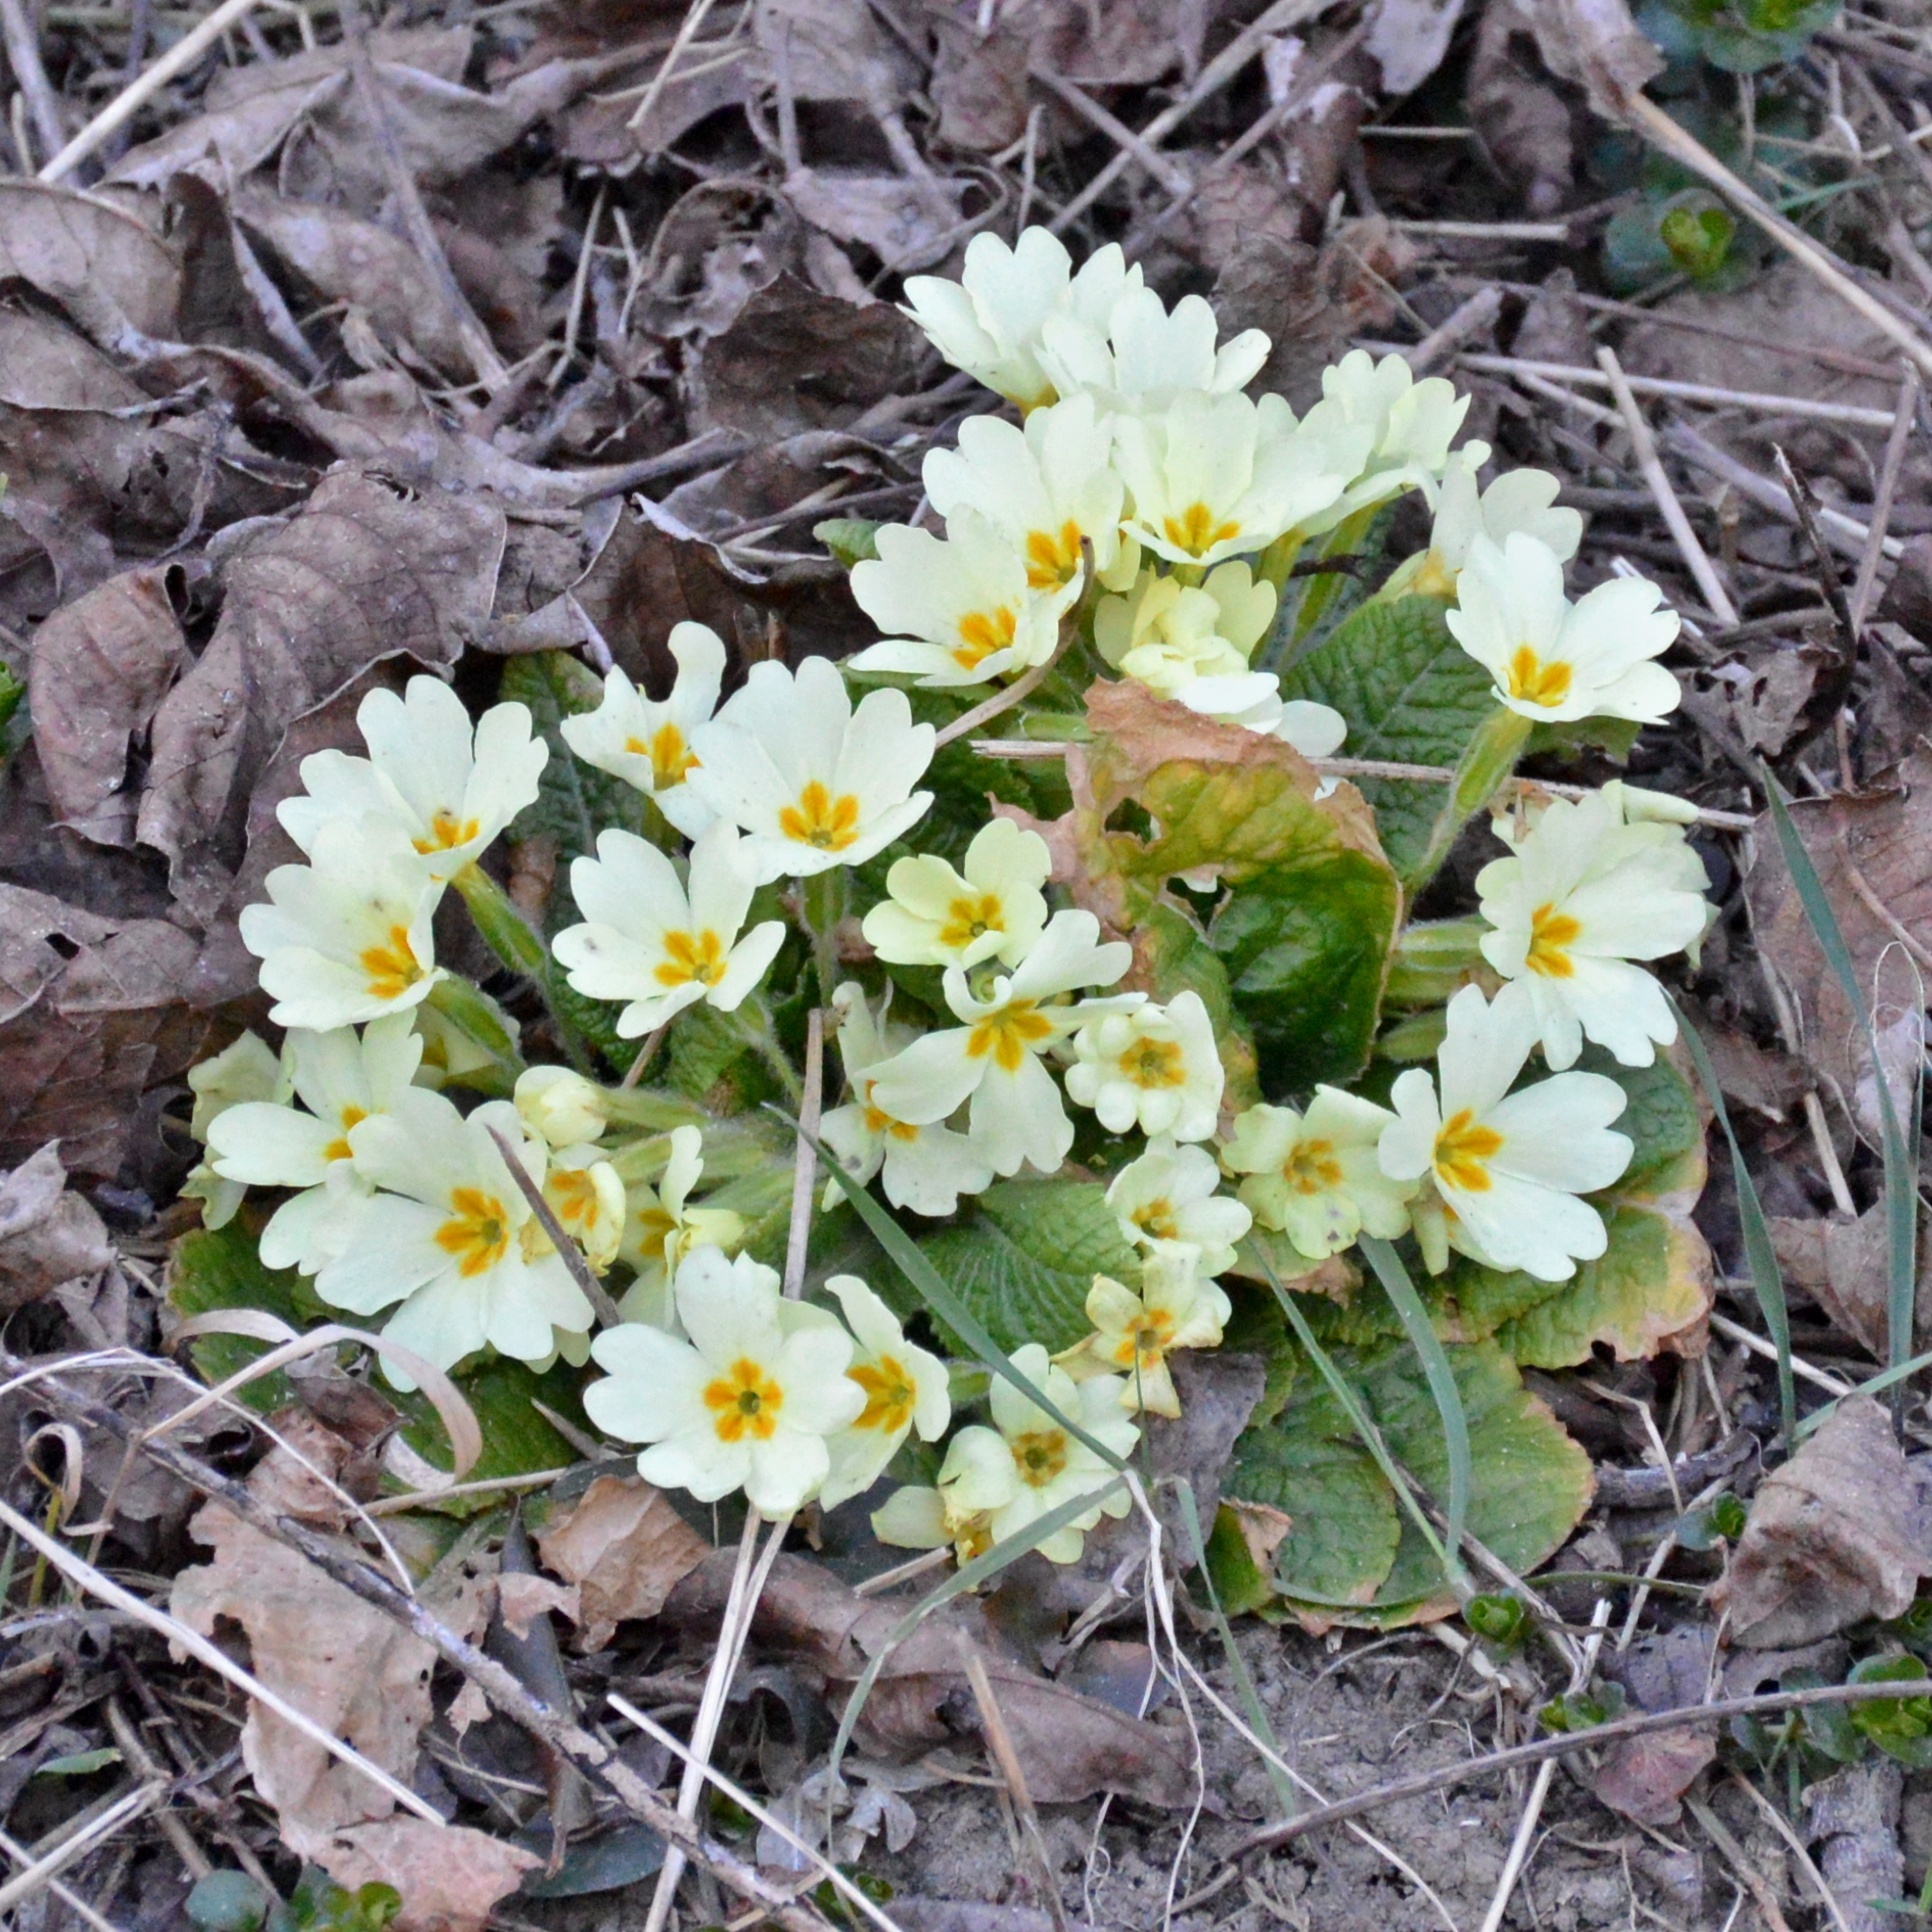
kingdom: Plantae
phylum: Tracheophyta
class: Magnoliopsida
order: Ericales
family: Primulaceae
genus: Primula
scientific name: Primula vulgaris
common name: Primrose
